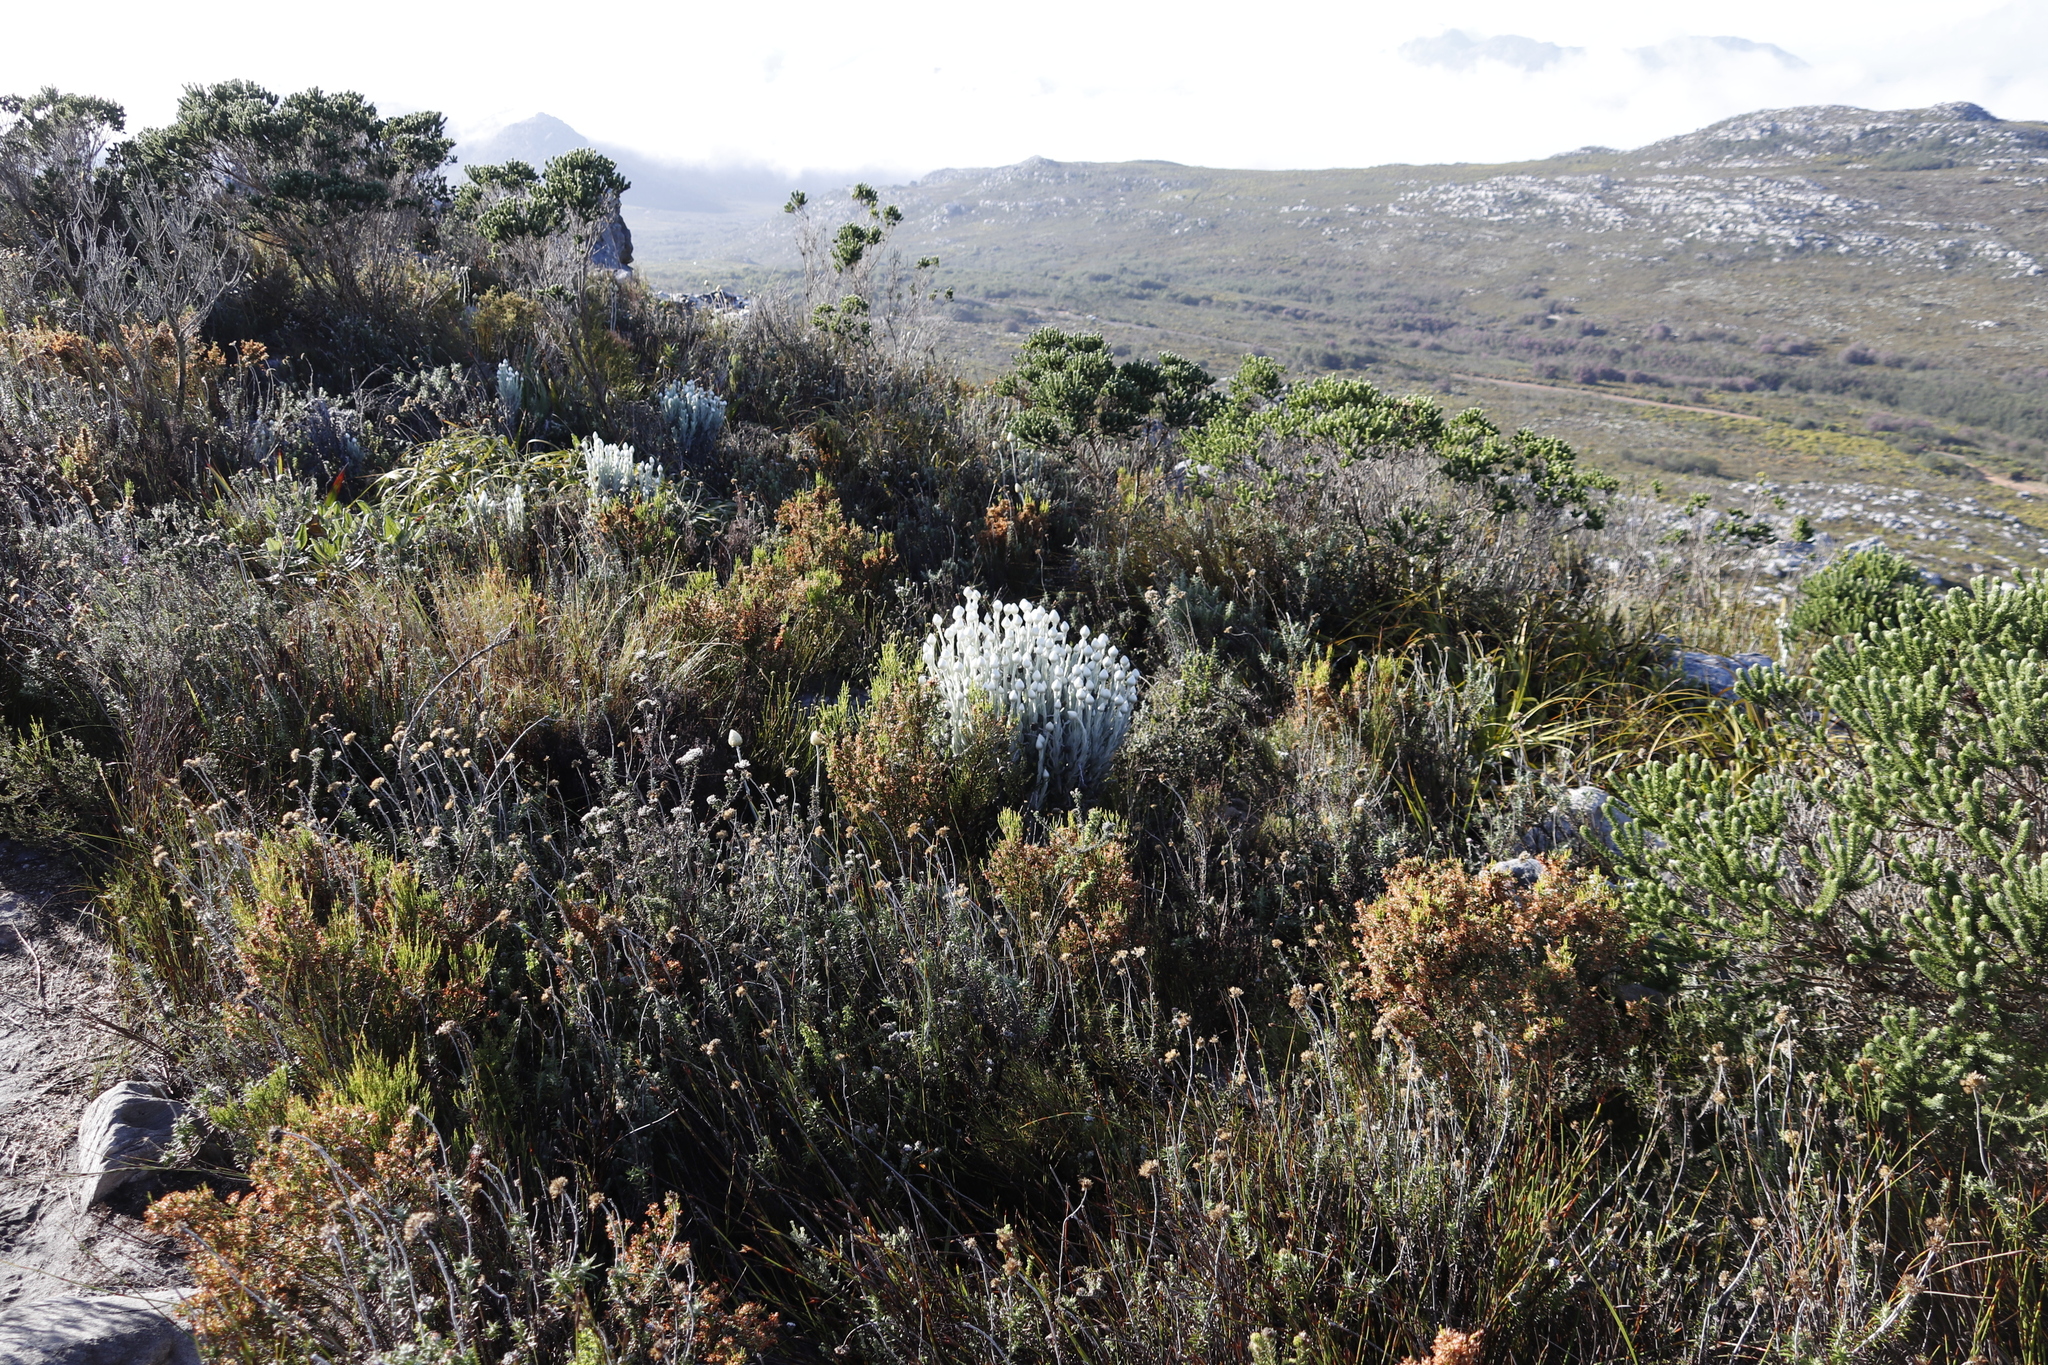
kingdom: Plantae
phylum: Tracheophyta
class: Magnoliopsida
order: Asterales
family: Asteraceae
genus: Syncarpha
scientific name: Syncarpha vestita
